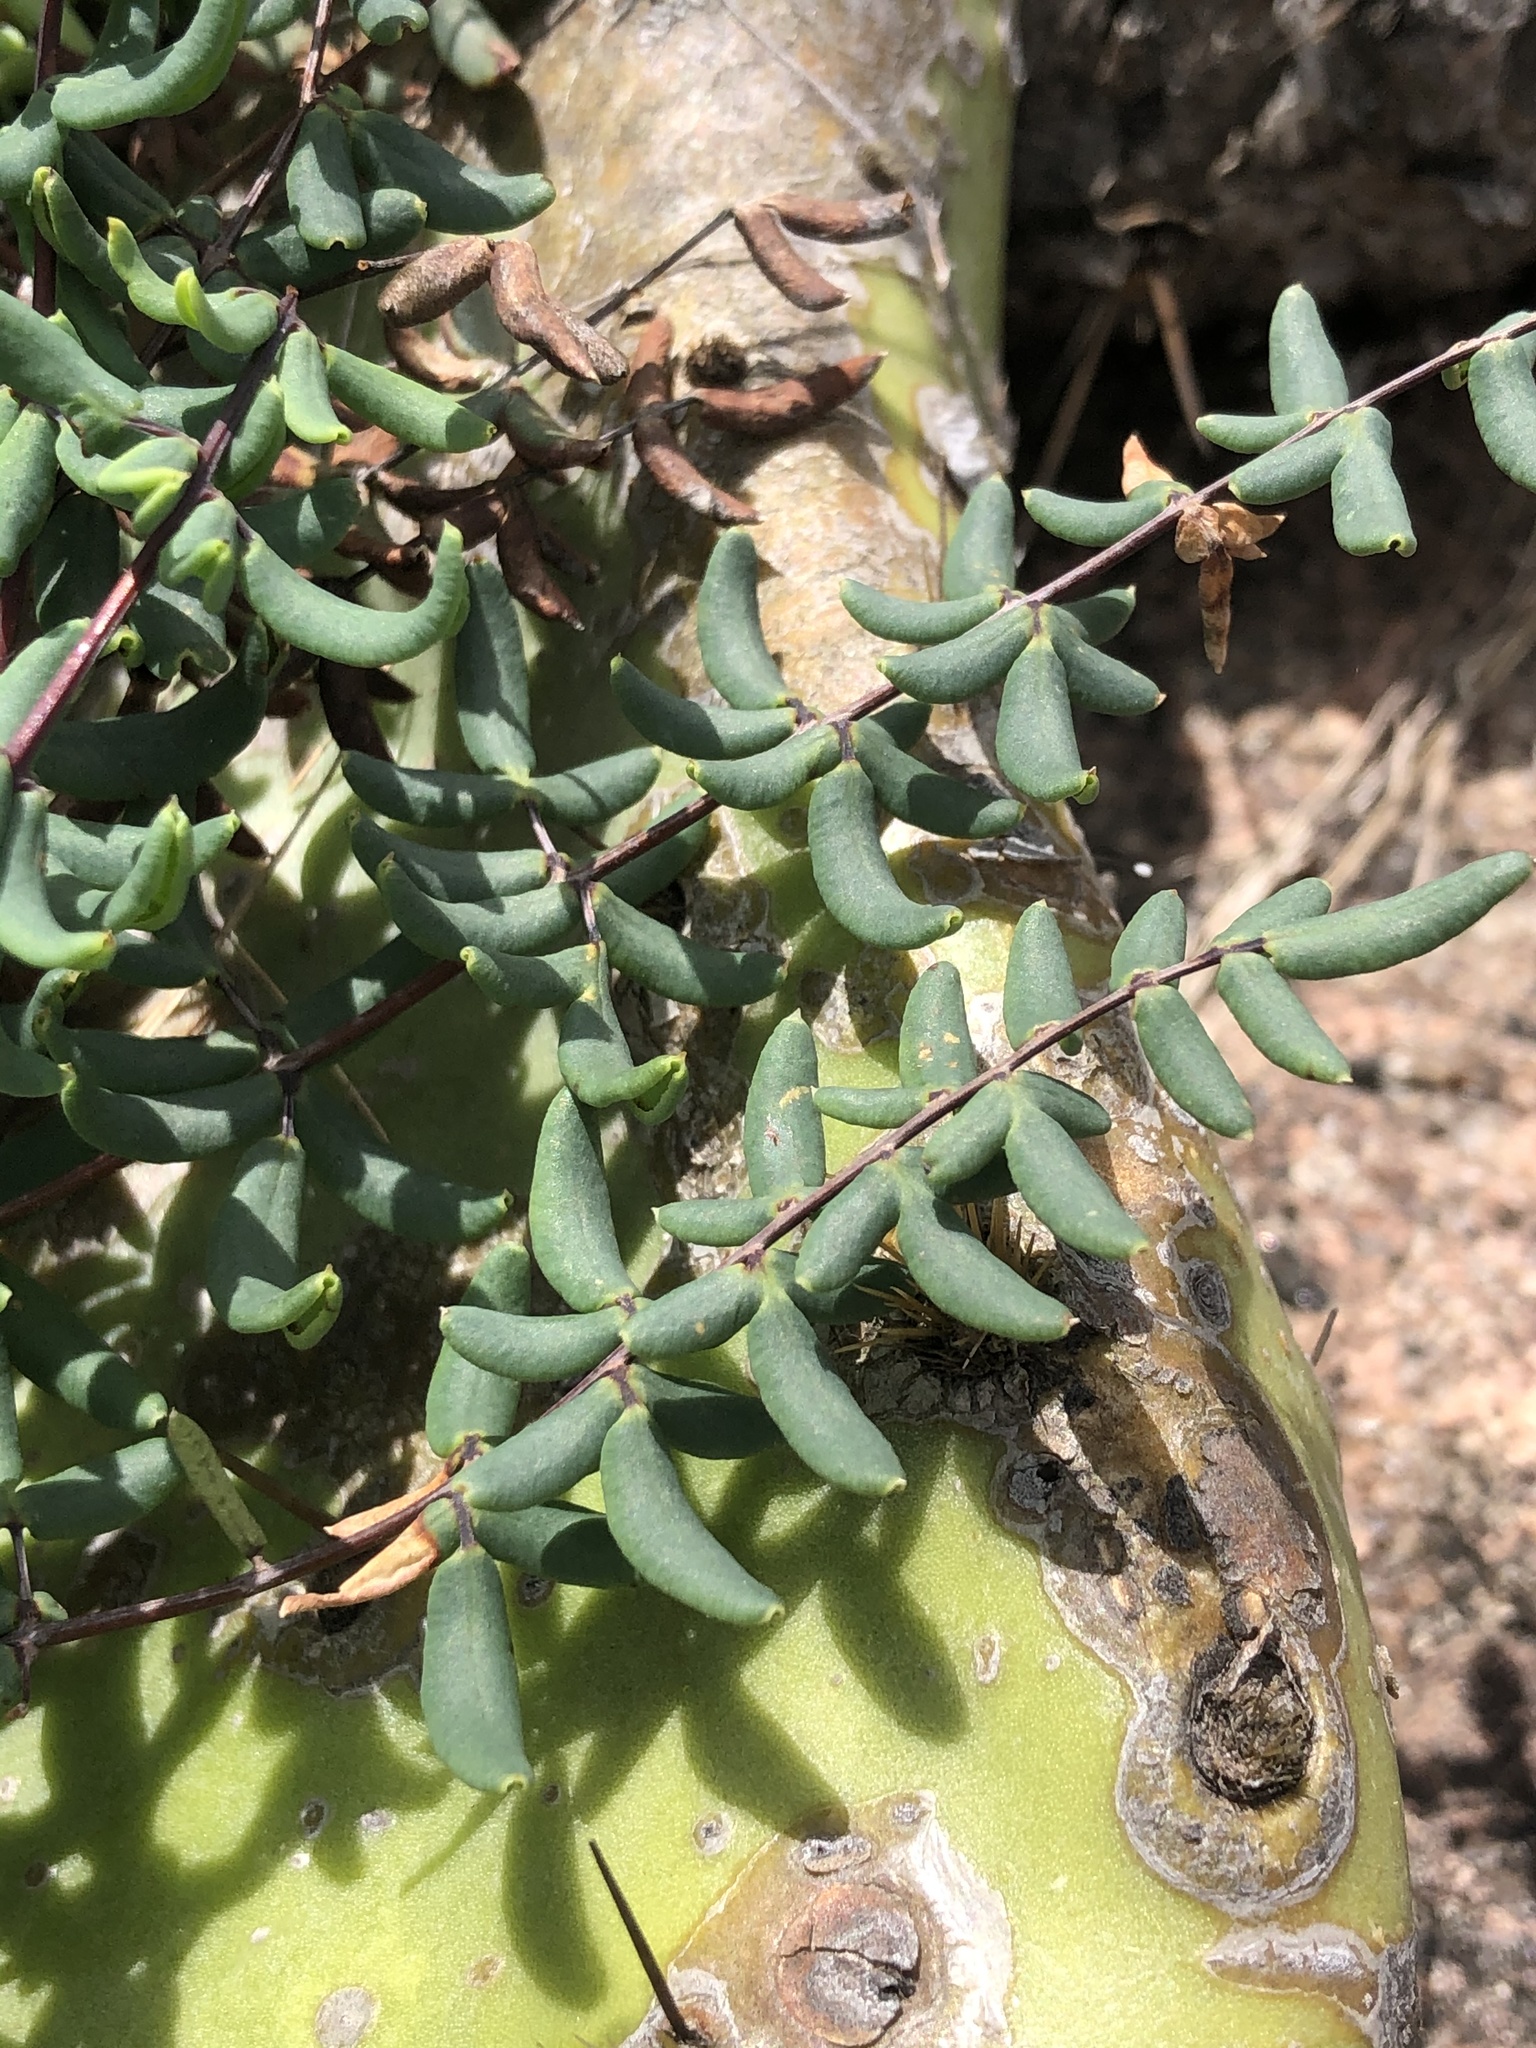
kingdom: Plantae
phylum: Tracheophyta
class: Polypodiopsida
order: Polypodiales
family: Pteridaceae
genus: Pellaea
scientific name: Pellaea wrightiana
